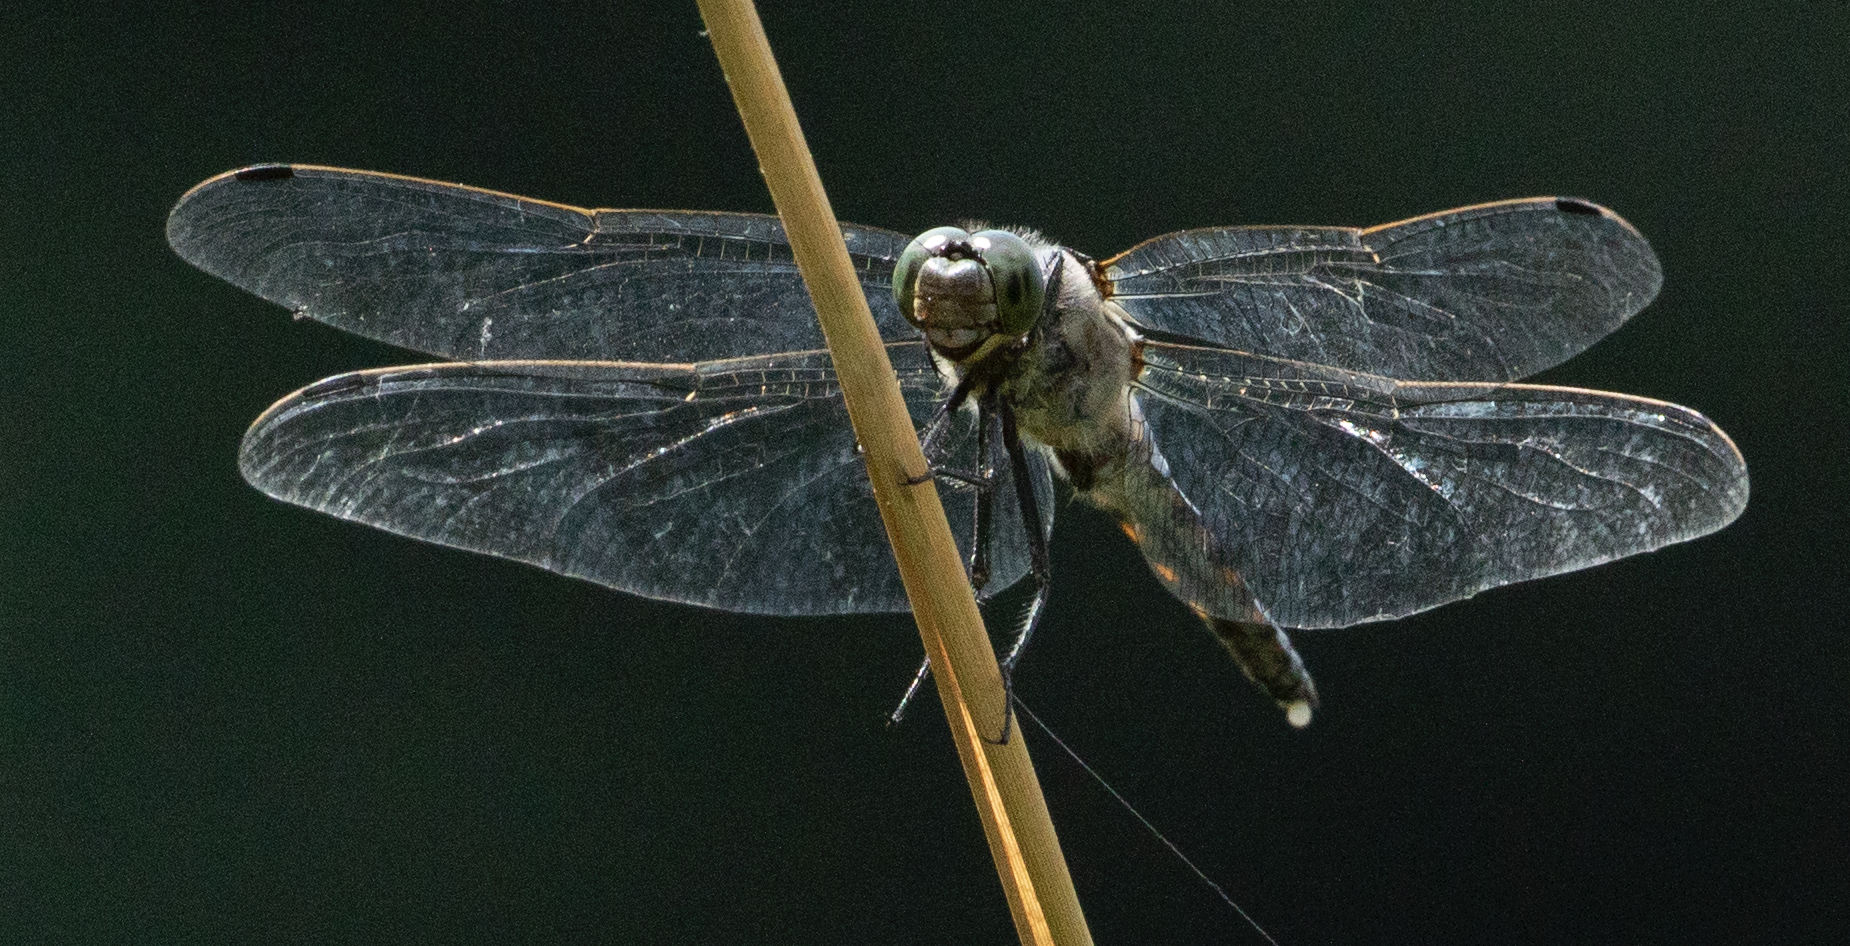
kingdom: Animalia
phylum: Arthropoda
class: Insecta
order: Odonata
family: Libellulidae
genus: Orthetrum
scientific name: Orthetrum cancellatum
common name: Black-tailed skimmer
